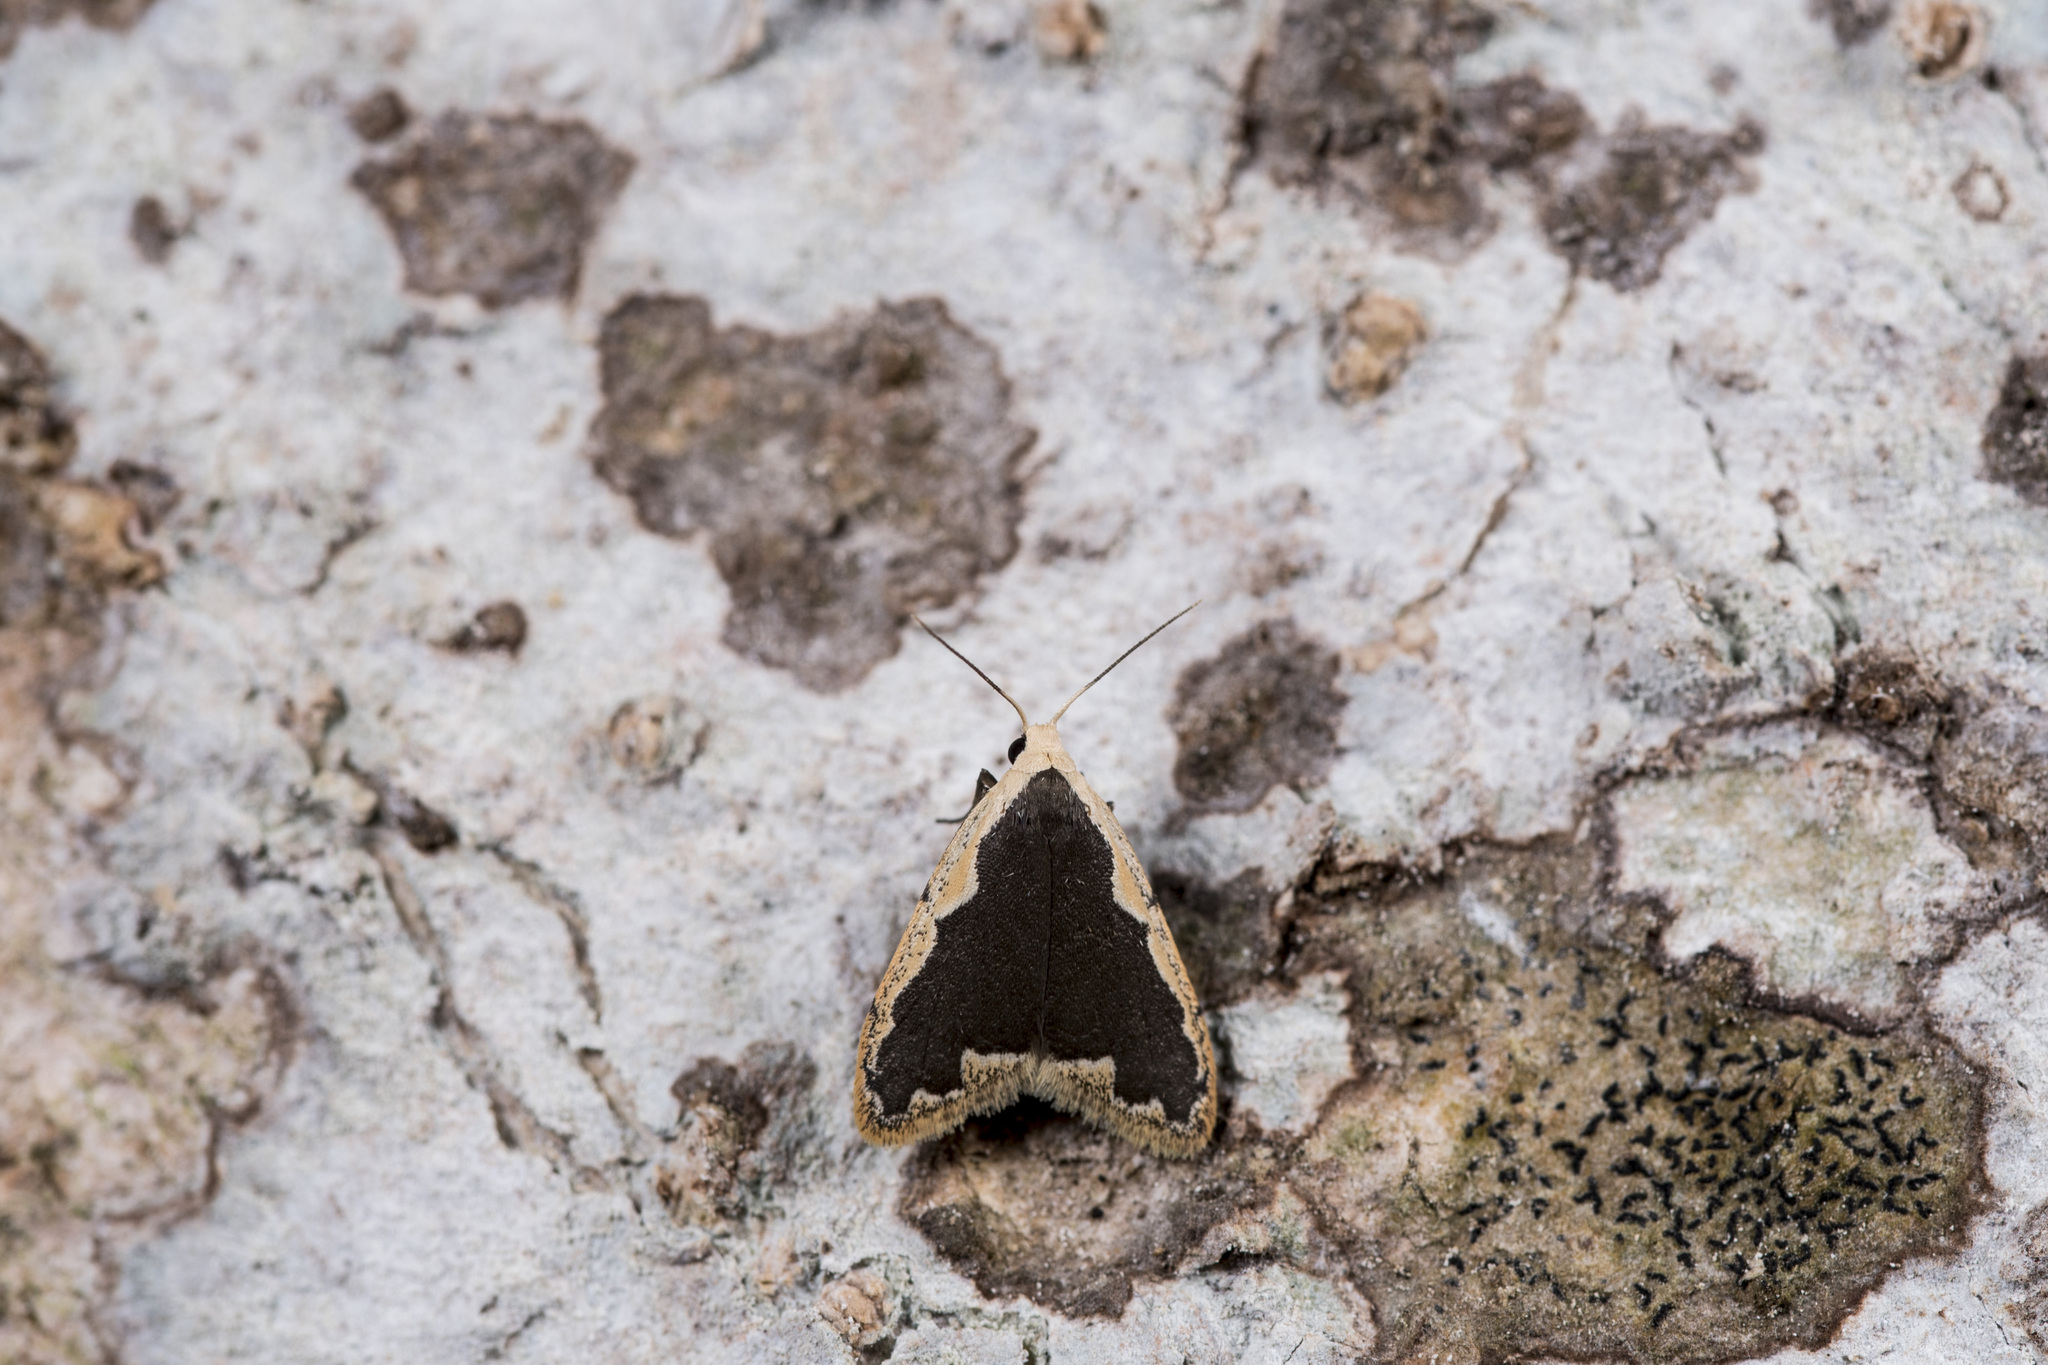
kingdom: Animalia
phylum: Arthropoda
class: Insecta
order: Lepidoptera
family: Erebidae
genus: Diduga
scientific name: Diduga taiwana
